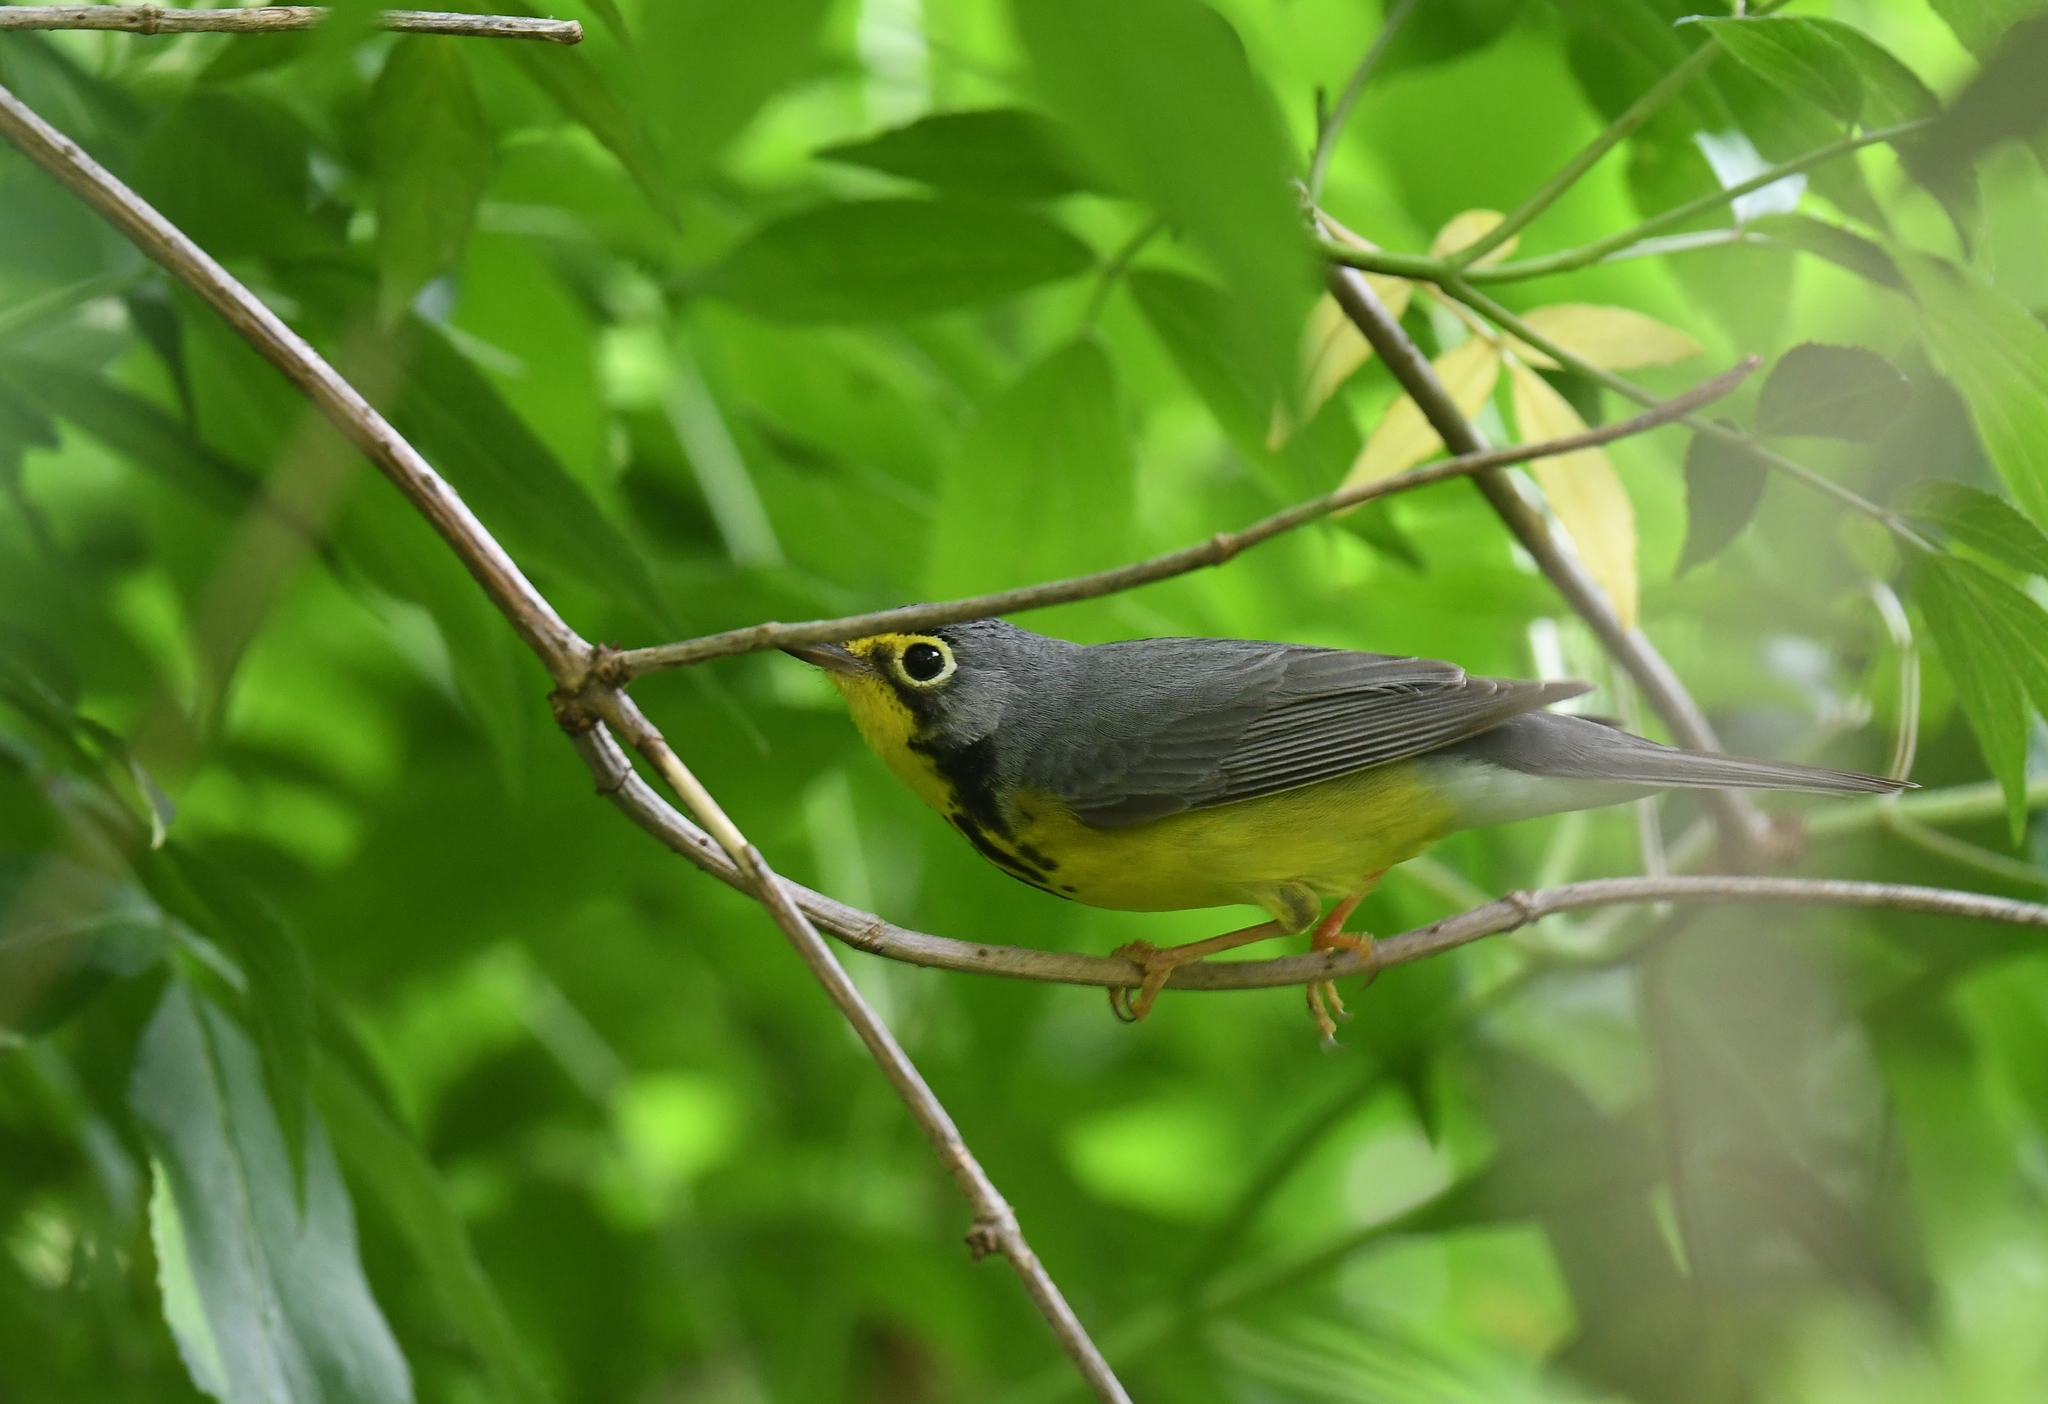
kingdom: Animalia
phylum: Chordata
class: Aves
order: Passeriformes
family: Parulidae
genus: Cardellina
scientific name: Cardellina canadensis
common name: Canada warbler
